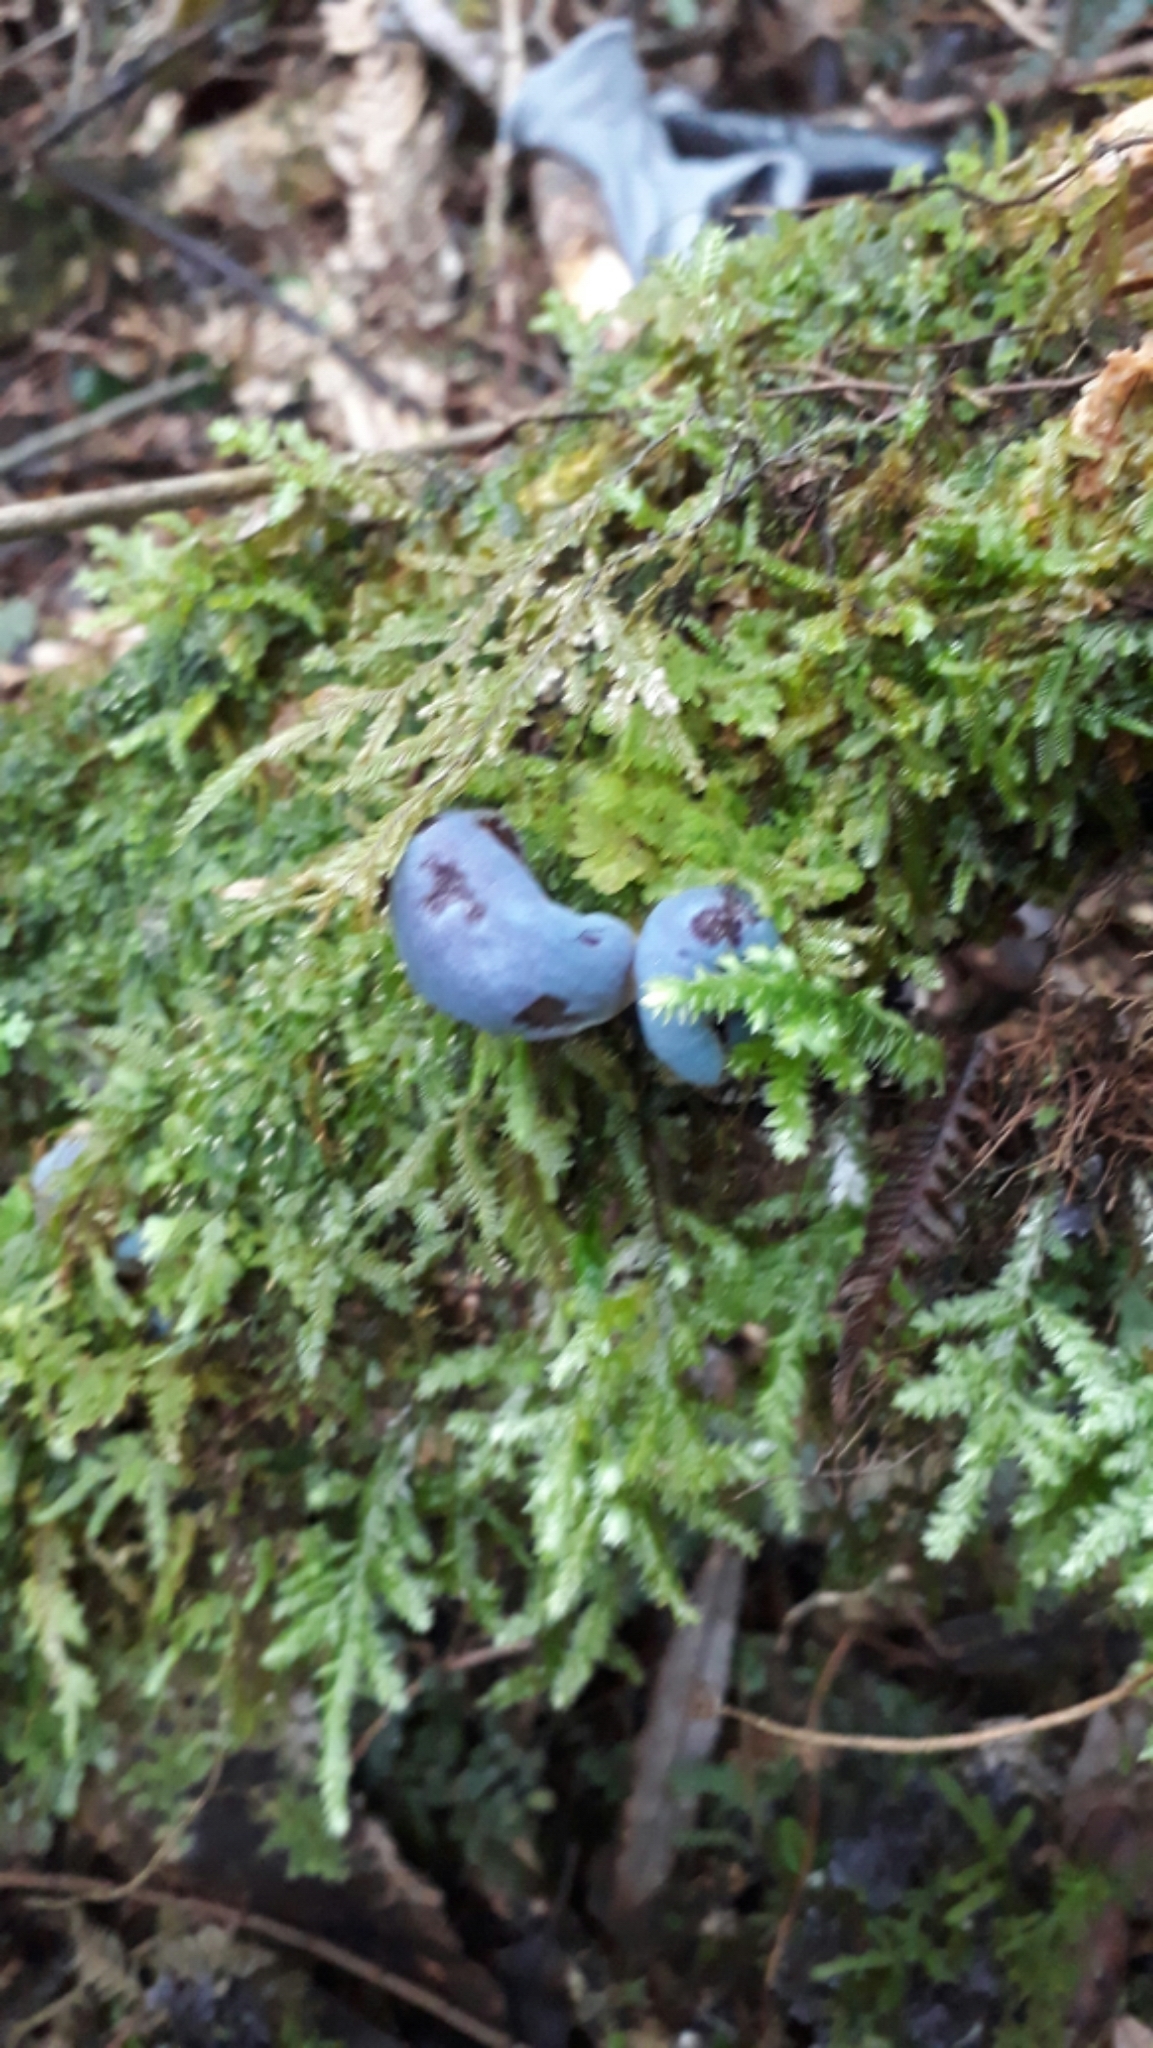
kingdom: Fungi
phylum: Basidiomycota
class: Agaricomycetes
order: Agaricales
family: Agaricaceae
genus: Clavogaster
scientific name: Clavogaster virescens
